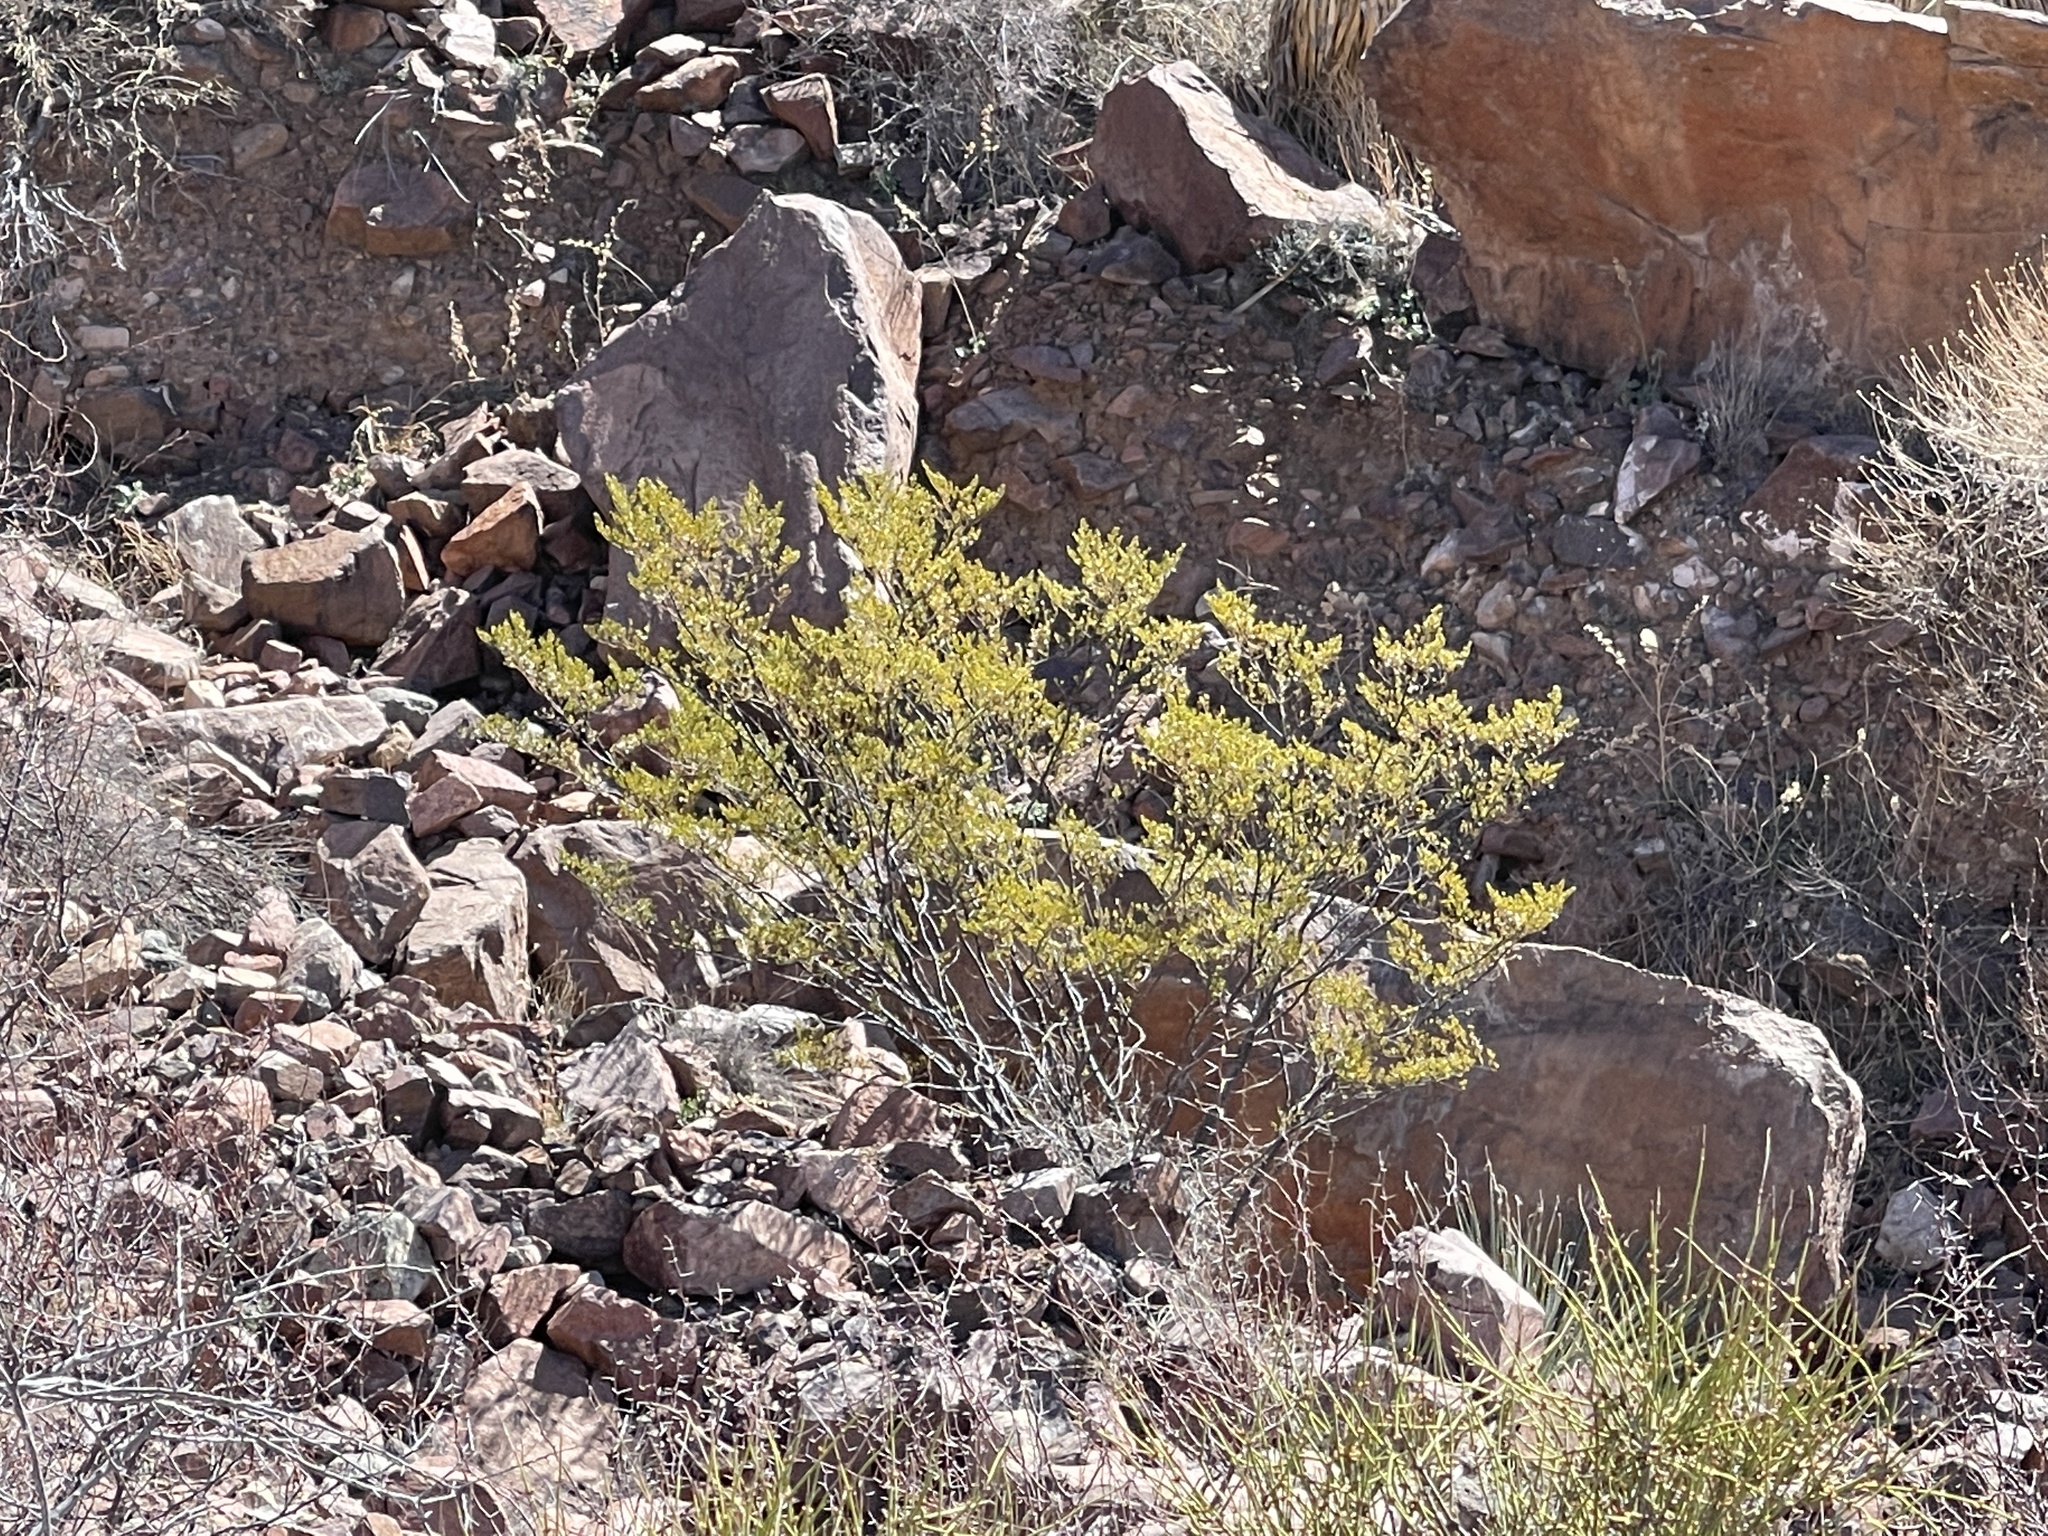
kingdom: Plantae
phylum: Tracheophyta
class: Magnoliopsida
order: Zygophyllales
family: Zygophyllaceae
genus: Larrea
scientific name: Larrea tridentata
